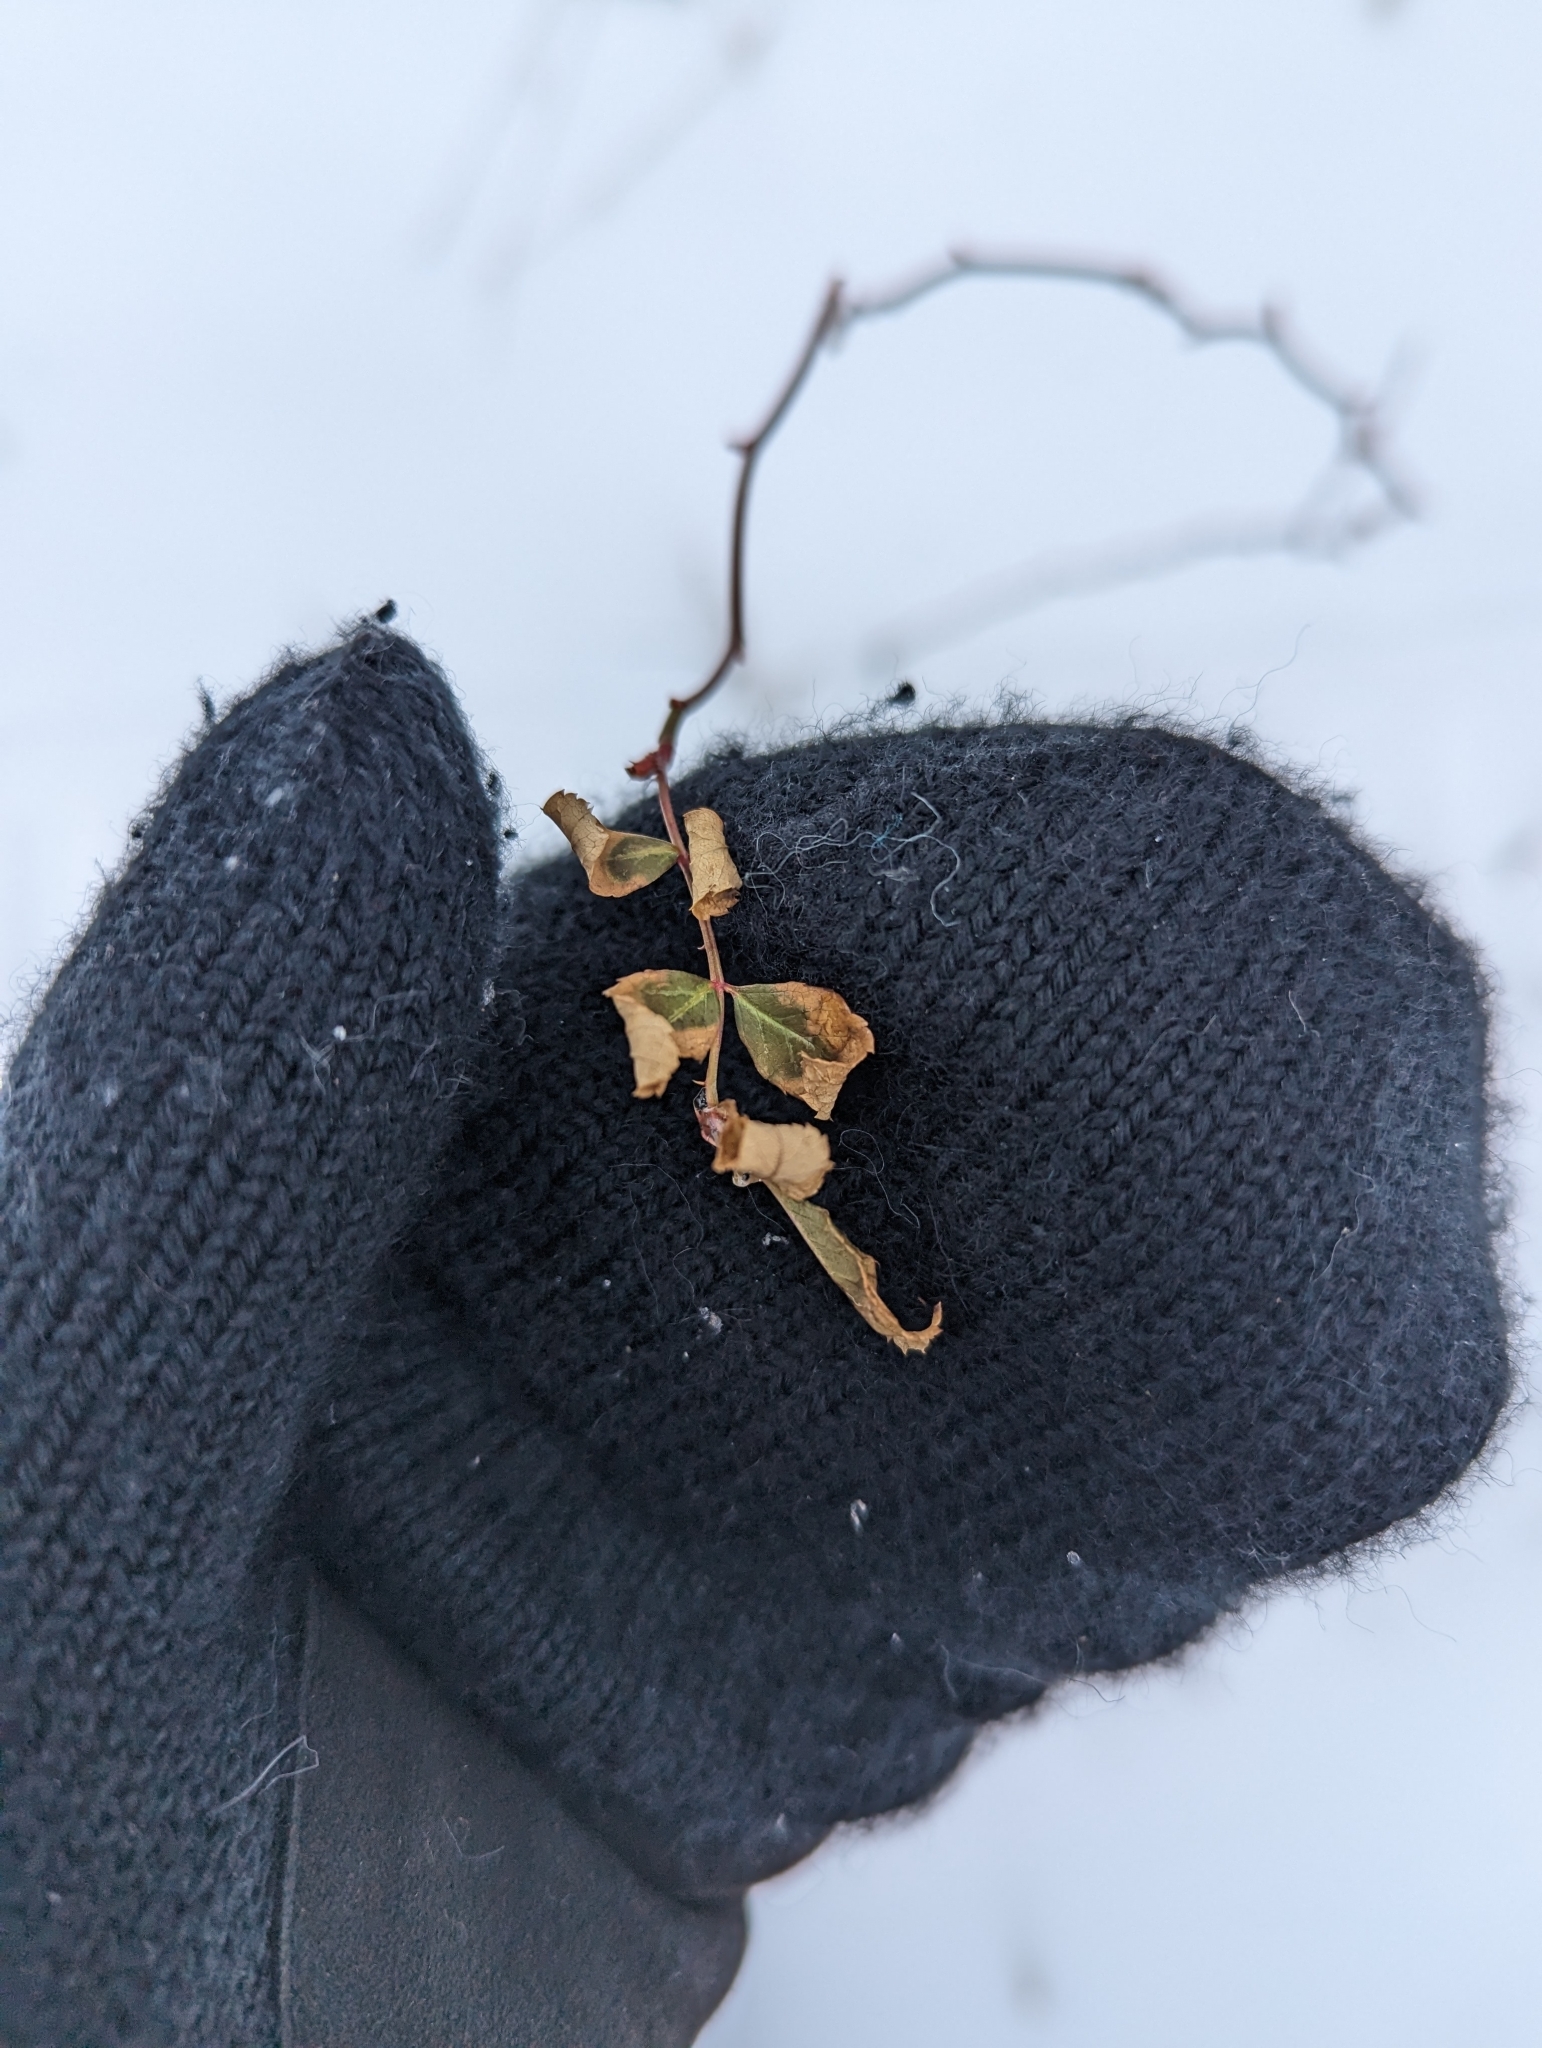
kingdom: Plantae
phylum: Tracheophyta
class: Magnoliopsida
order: Rosales
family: Rosaceae
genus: Rosa
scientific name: Rosa multiflora
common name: Multiflora rose
